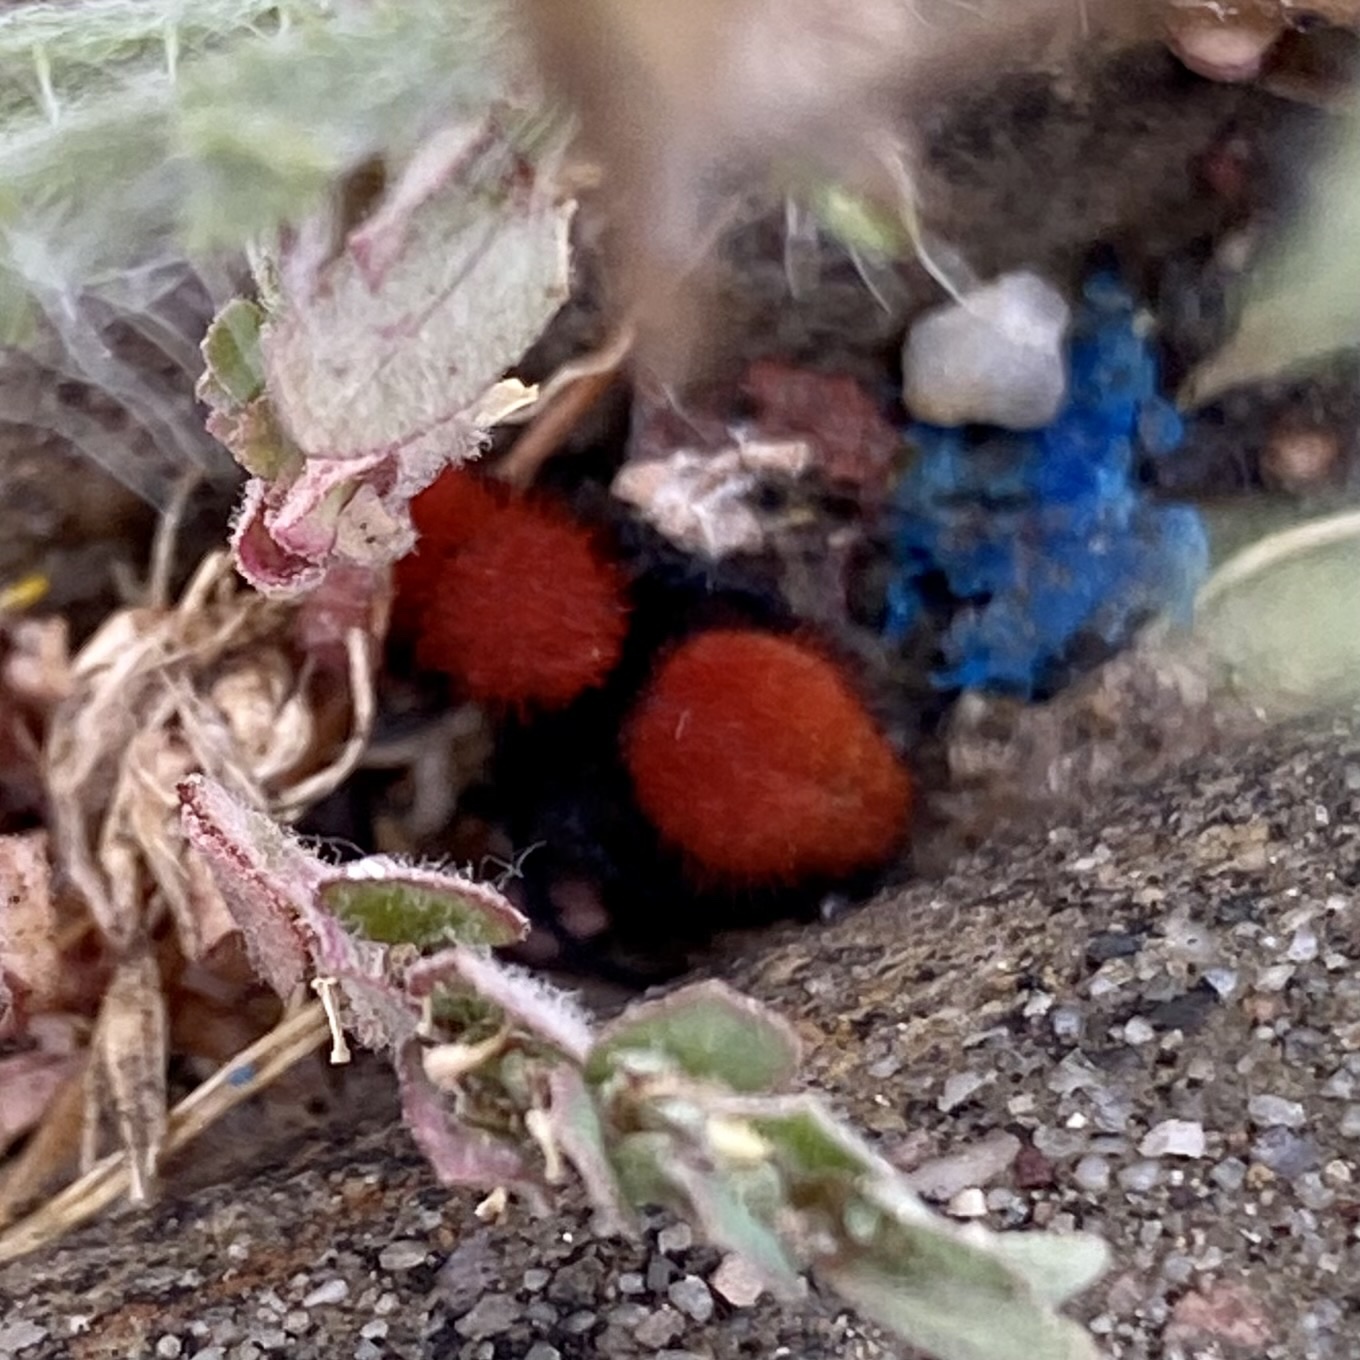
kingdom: Animalia
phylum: Arthropoda
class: Insecta
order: Hymenoptera
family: Mutillidae
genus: Dasymutilla
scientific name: Dasymutilla vestita
